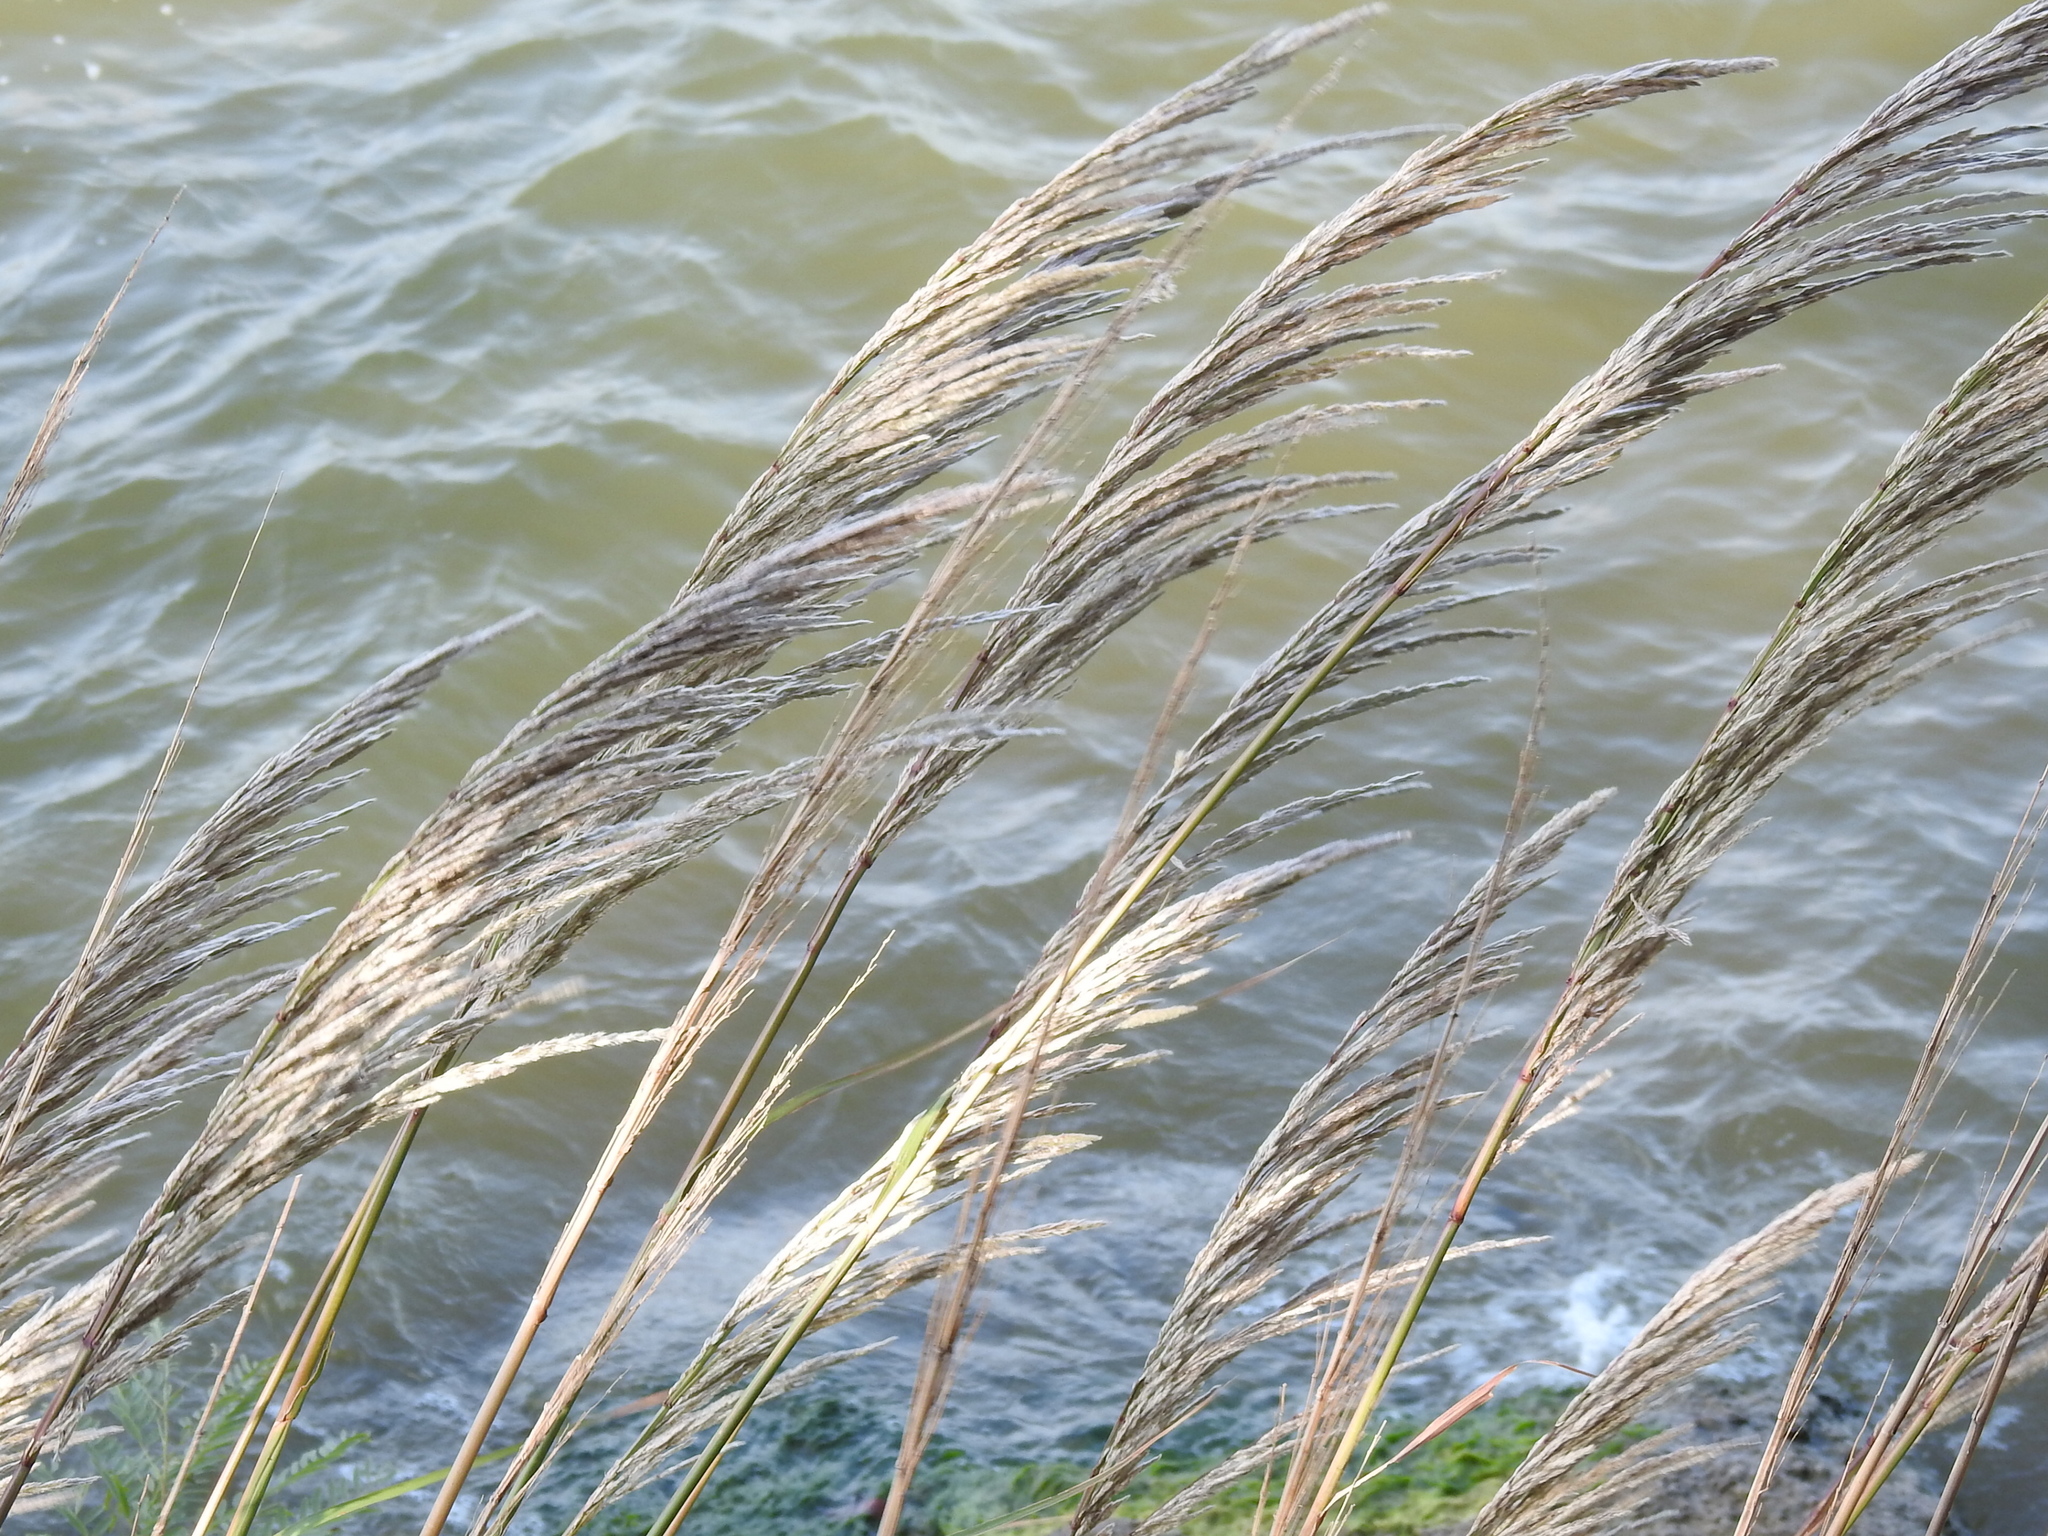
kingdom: Plantae
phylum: Tracheophyta
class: Liliopsida
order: Poales
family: Poaceae
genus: Tripidium
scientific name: Tripidium ravennae
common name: Ravenna grass
